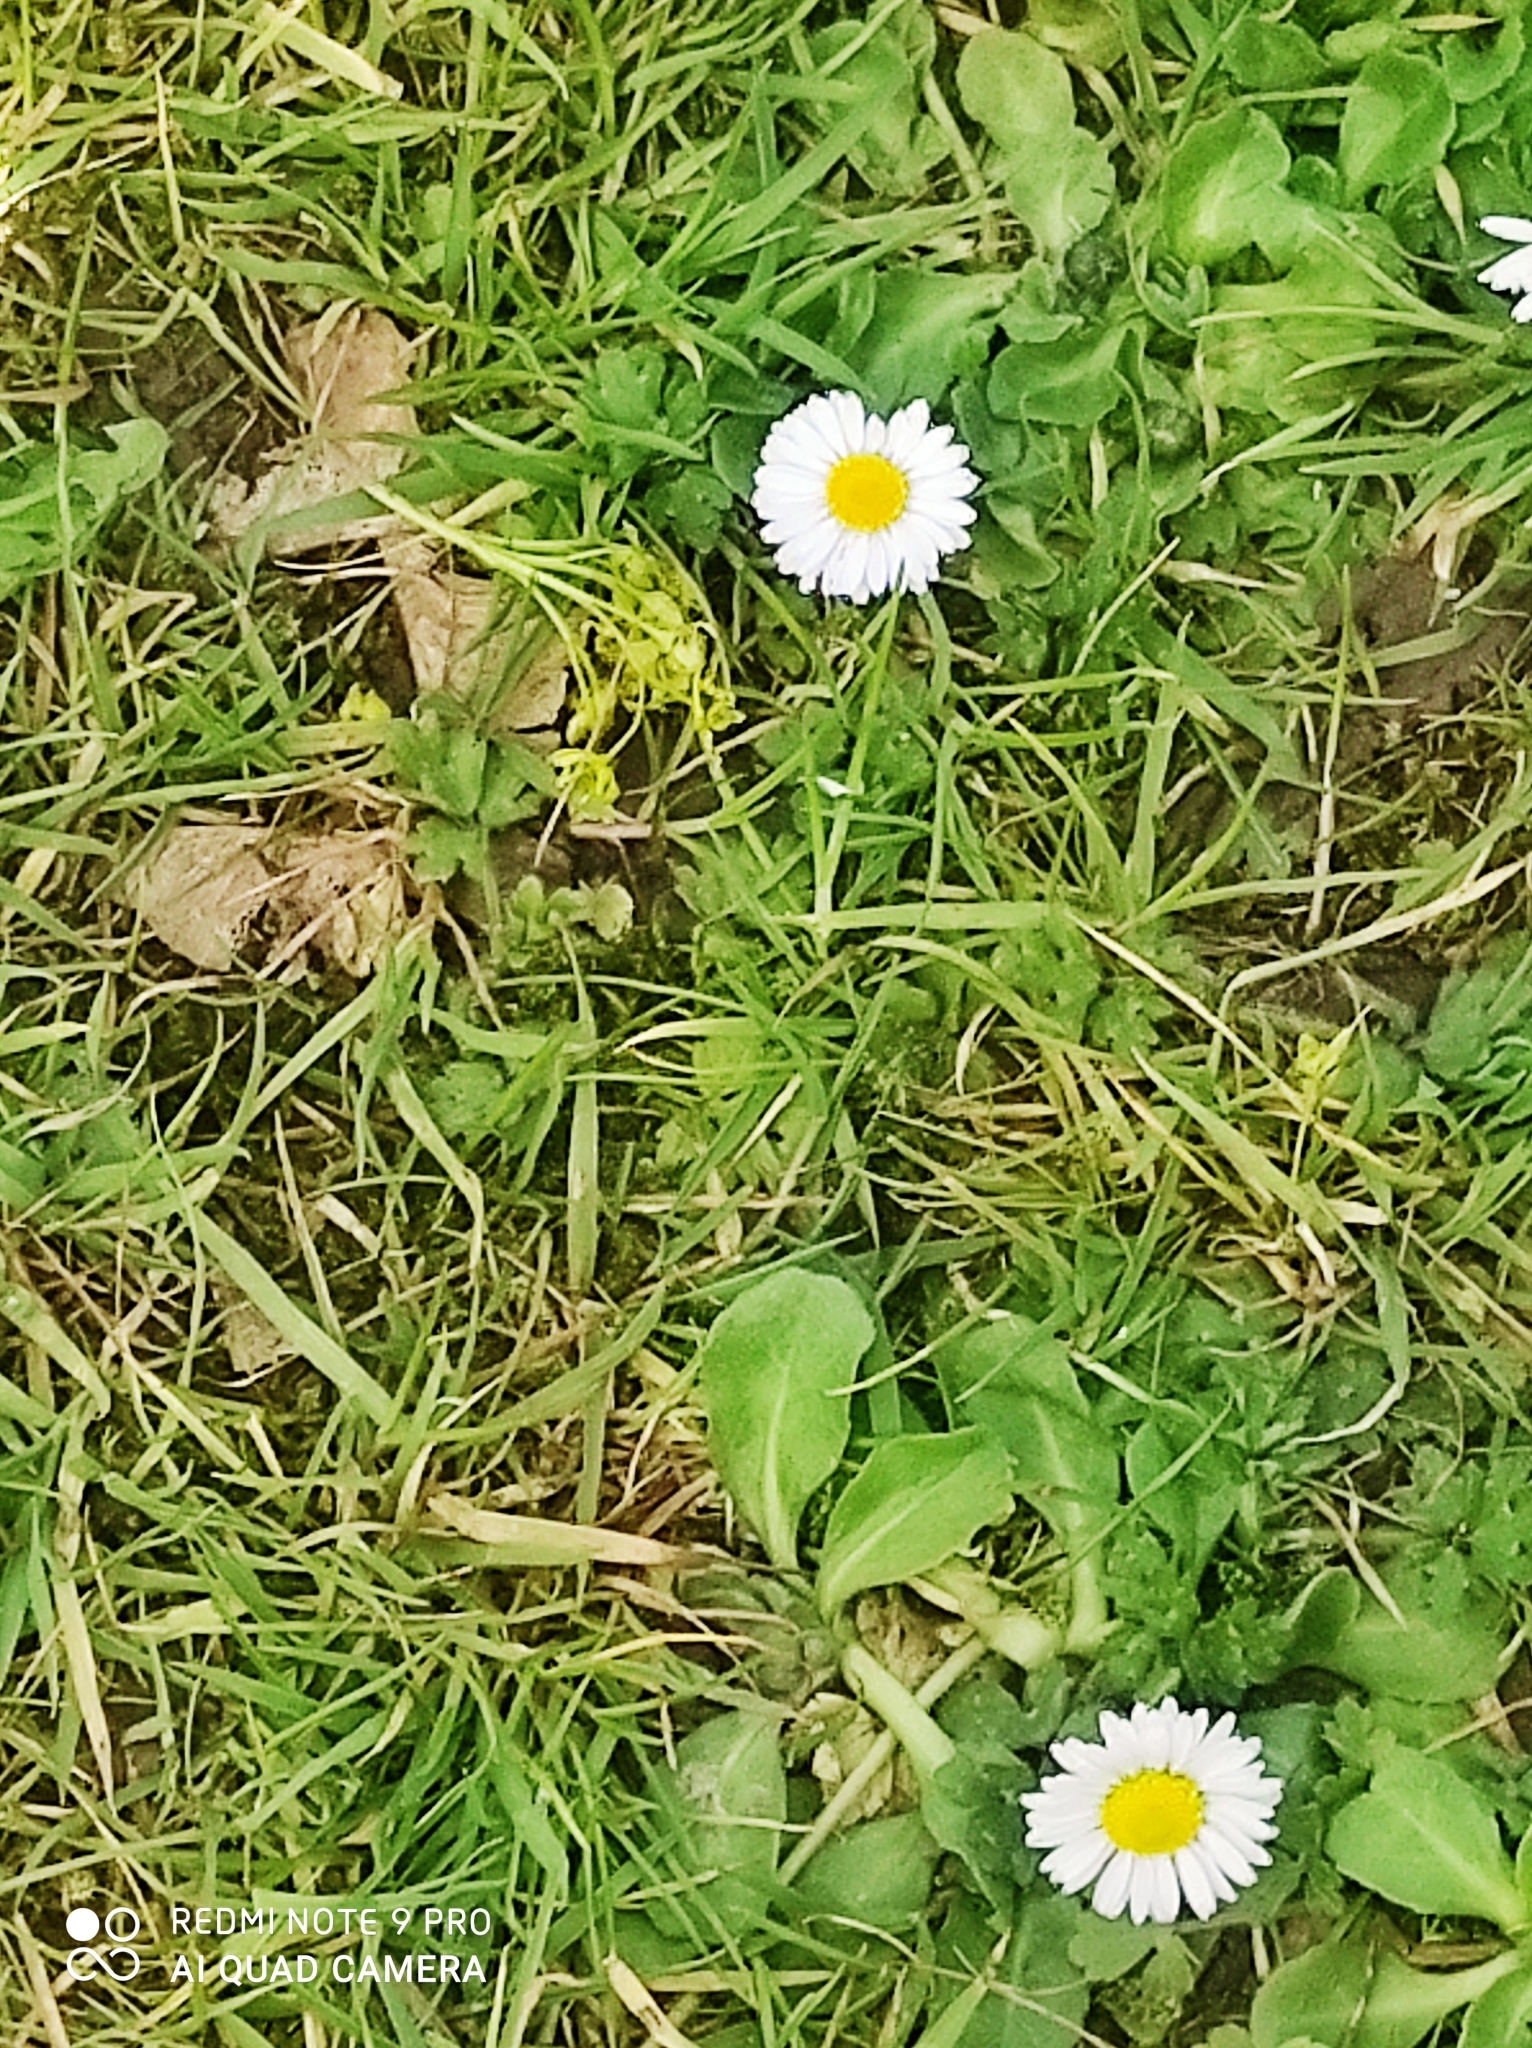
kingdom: Plantae
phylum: Tracheophyta
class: Magnoliopsida
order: Asterales
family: Asteraceae
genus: Bellis
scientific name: Bellis perennis
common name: Lawndaisy
